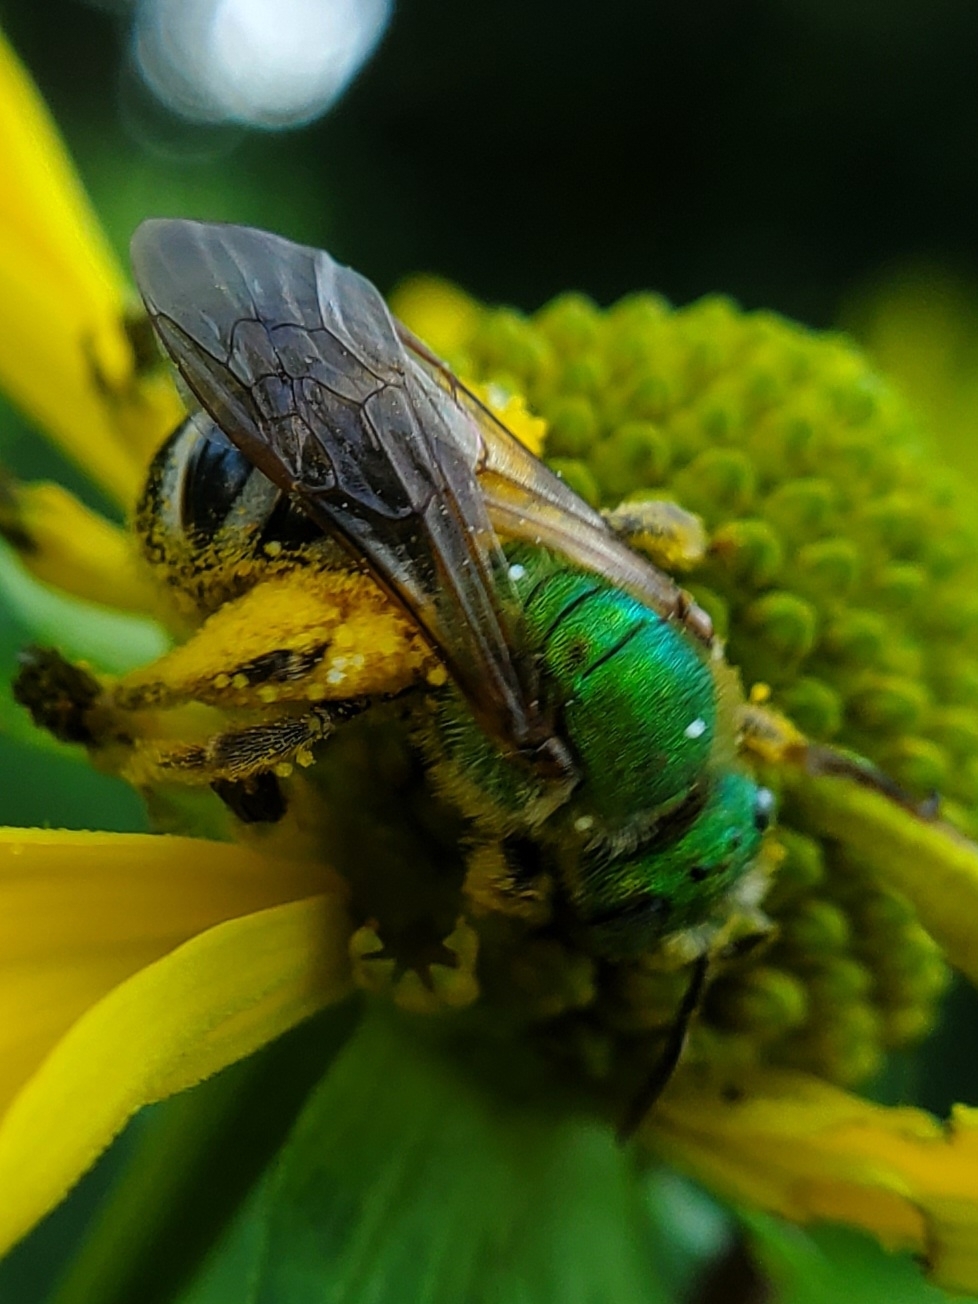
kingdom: Animalia
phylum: Arthropoda
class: Insecta
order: Hymenoptera
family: Halictidae
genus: Agapostemon
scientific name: Agapostemon virescens
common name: Bicolored striped sweat bee
